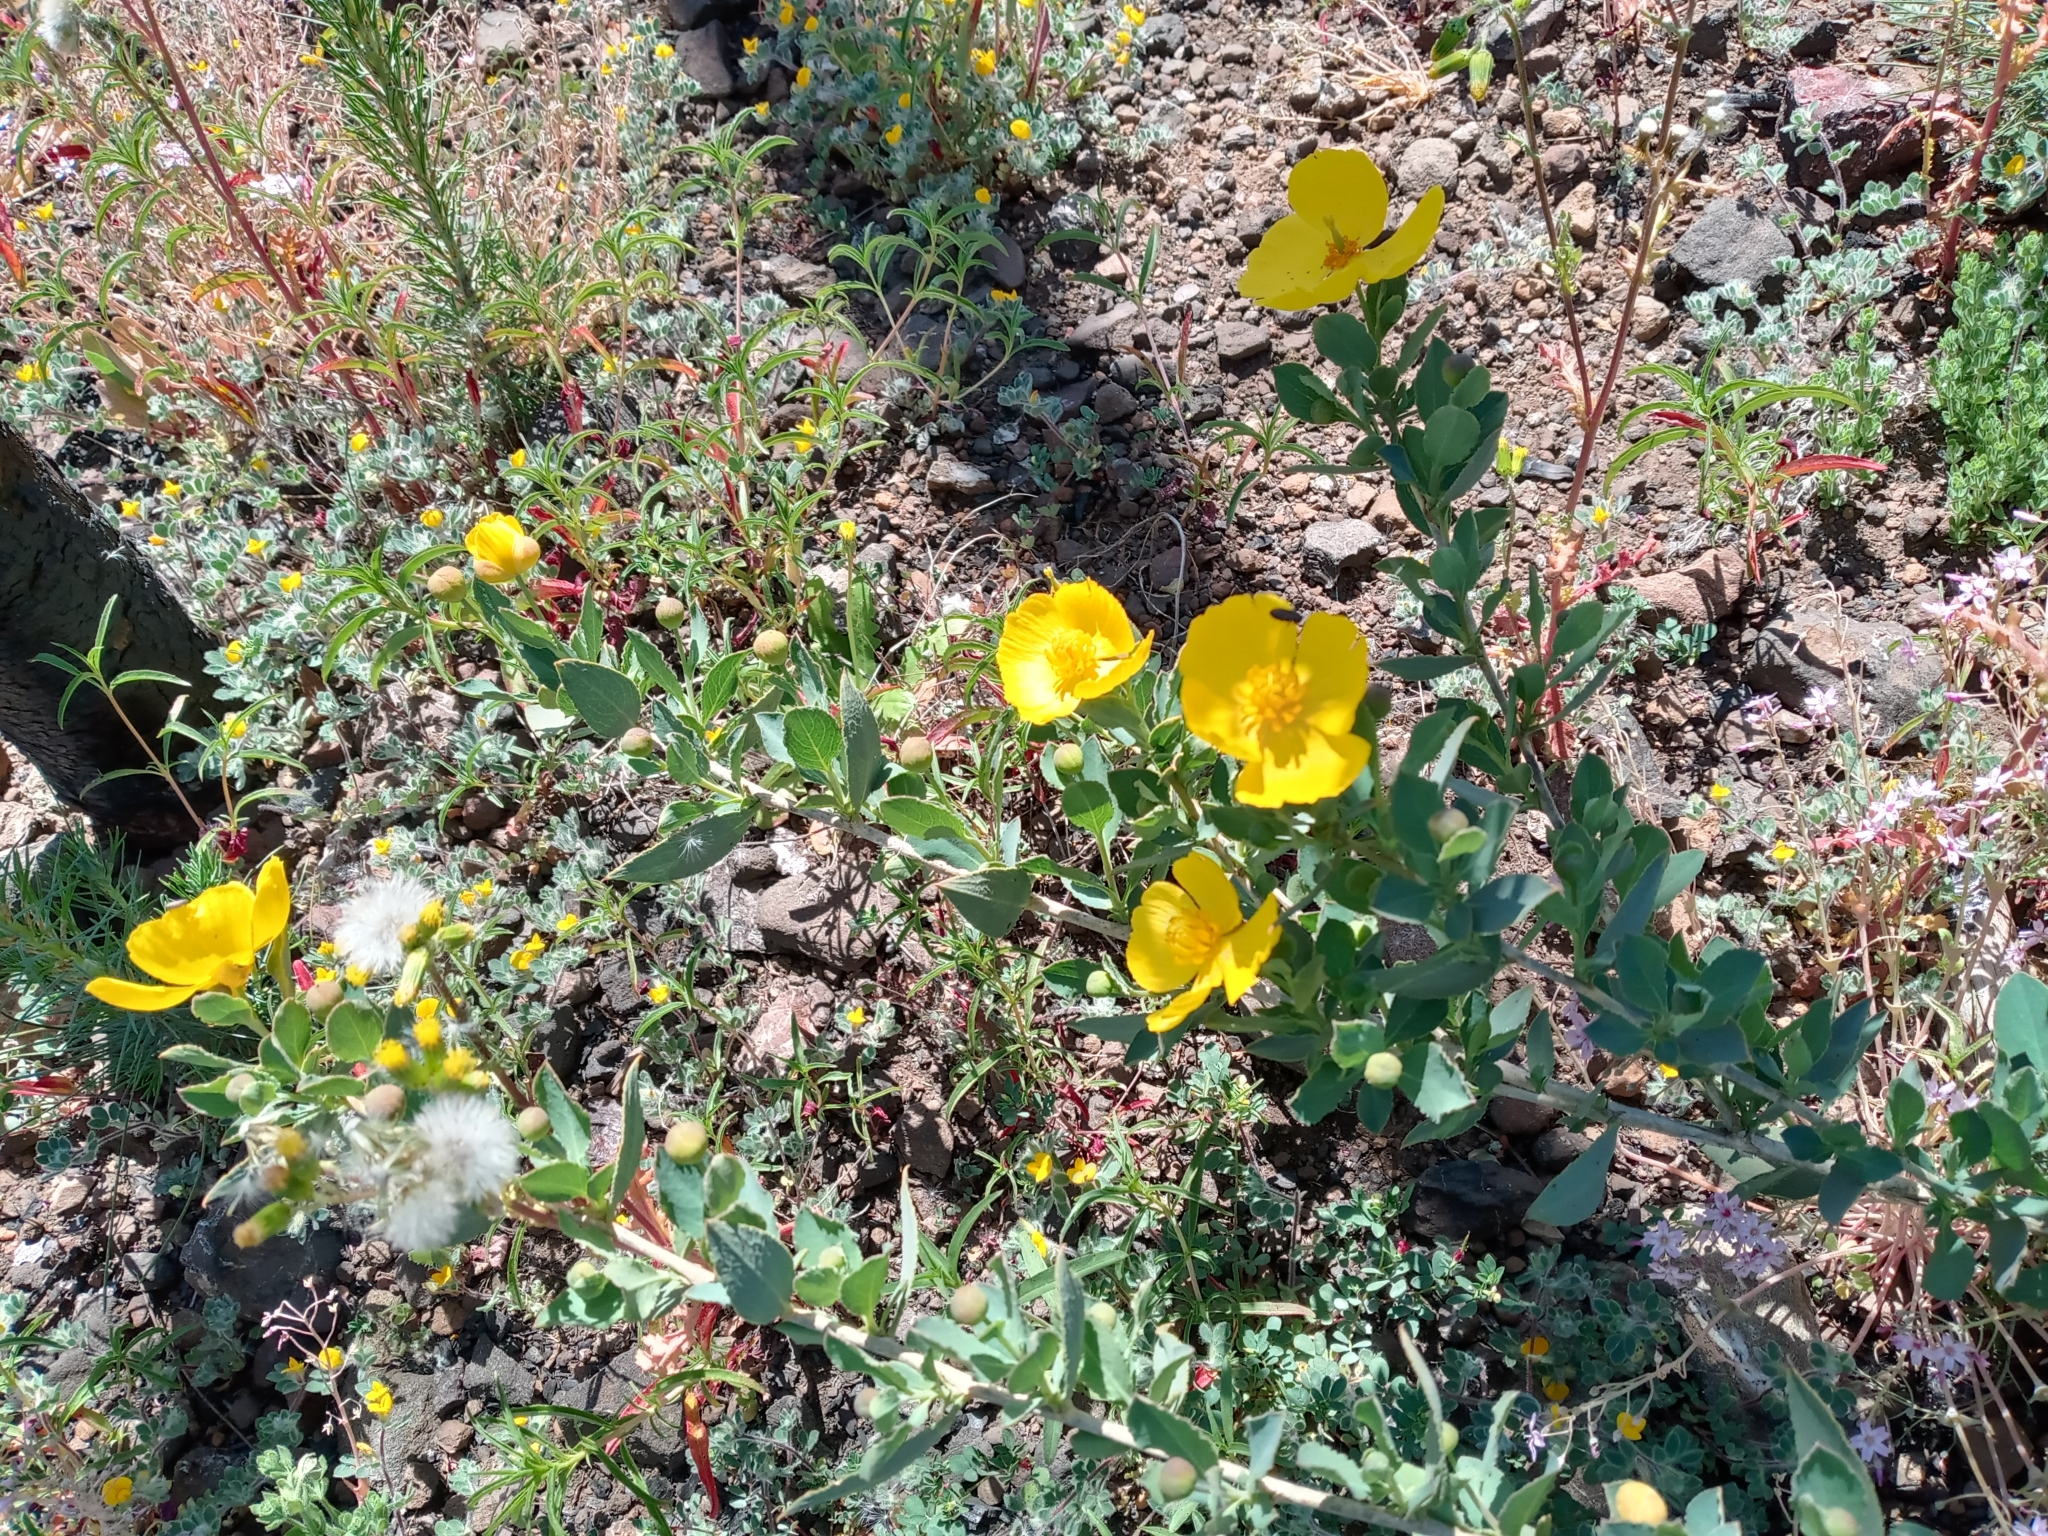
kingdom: Plantae
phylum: Tracheophyta
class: Magnoliopsida
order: Ranunculales
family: Papaveraceae
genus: Dendromecon
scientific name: Dendromecon rigida
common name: Tree poppy
